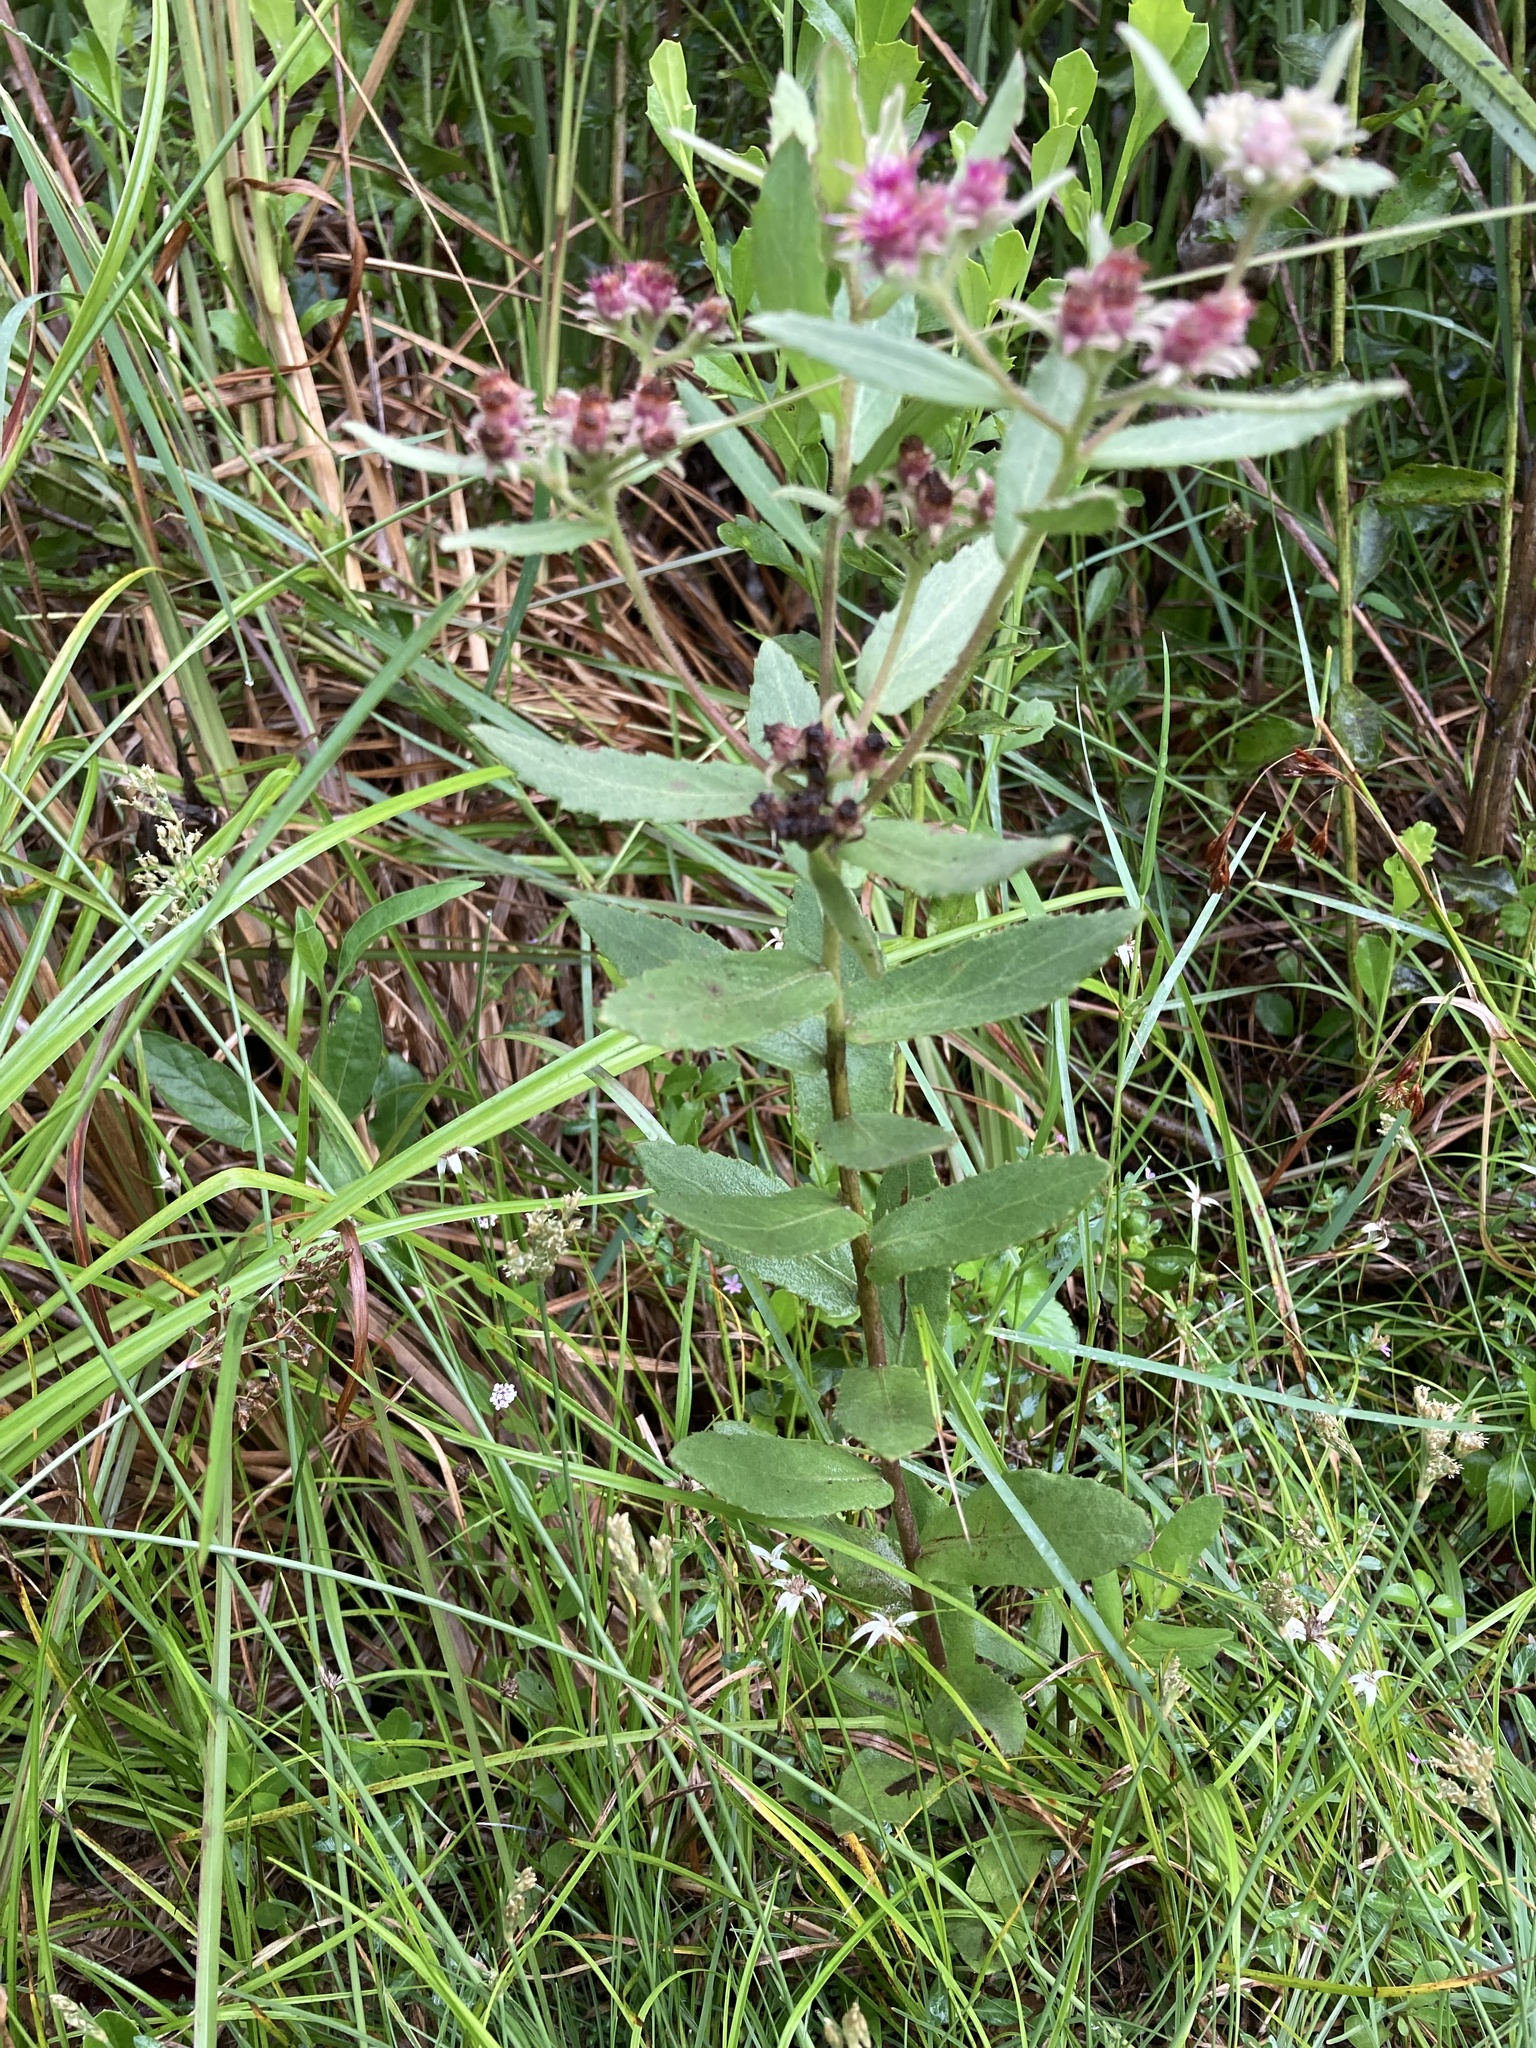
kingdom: Plantae
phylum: Tracheophyta
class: Magnoliopsida
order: Asterales
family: Asteraceae
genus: Pluchea
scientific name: Pluchea baccharis
